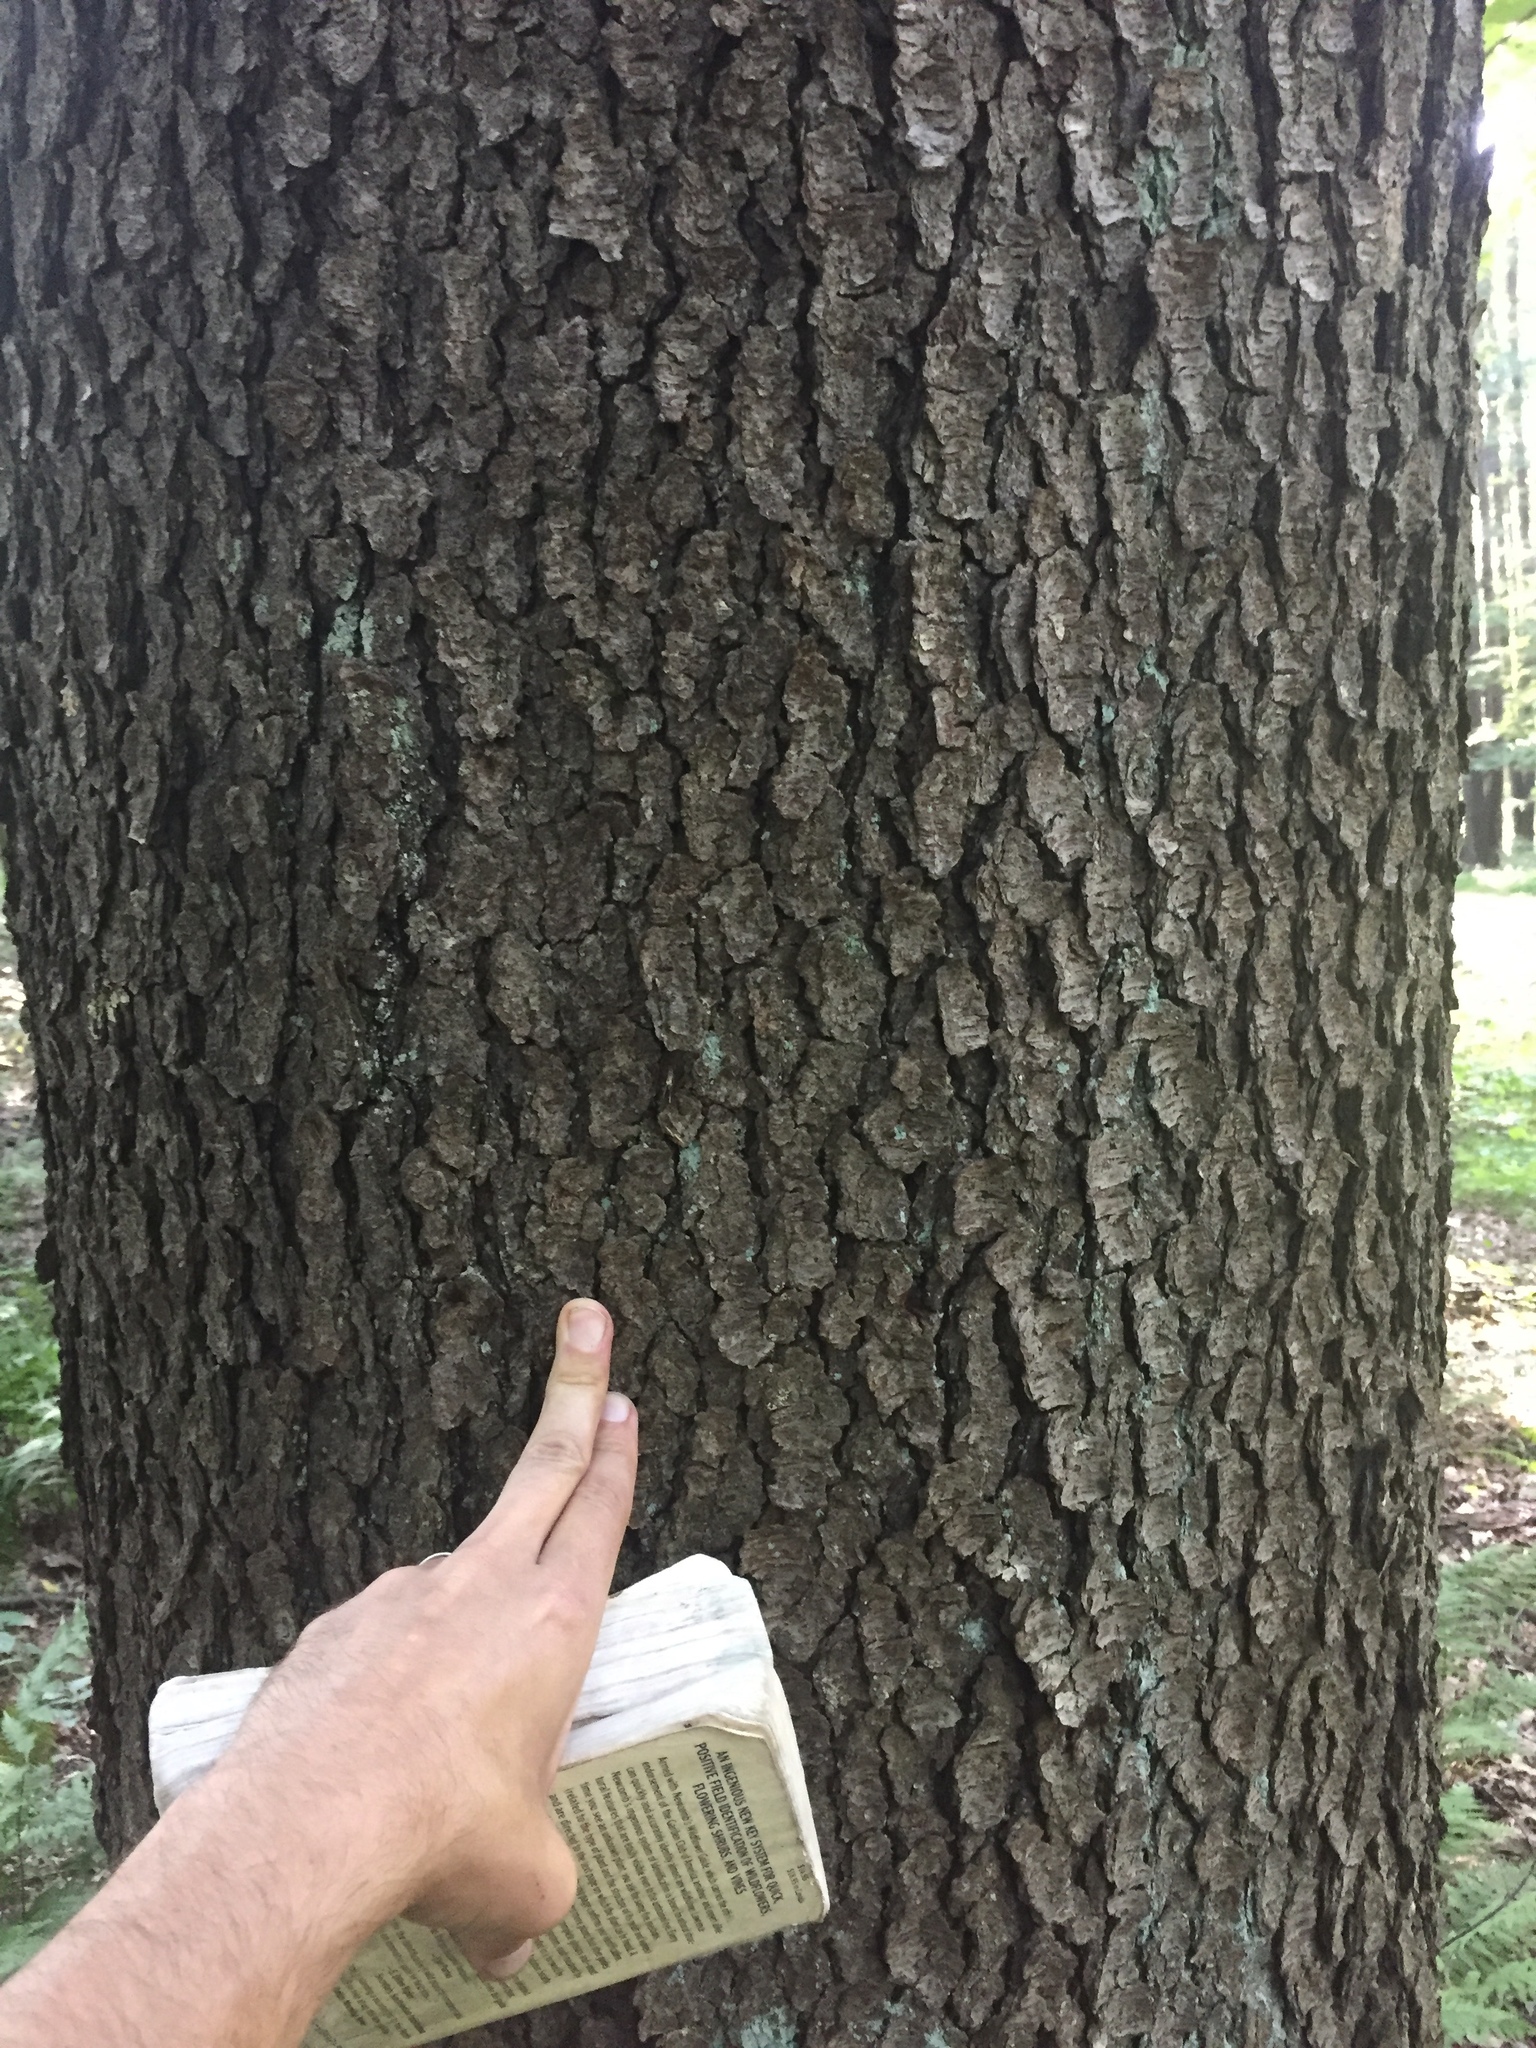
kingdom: Plantae
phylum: Tracheophyta
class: Magnoliopsida
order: Rosales
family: Rosaceae
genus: Prunus
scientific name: Prunus serotina
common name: Black cherry
